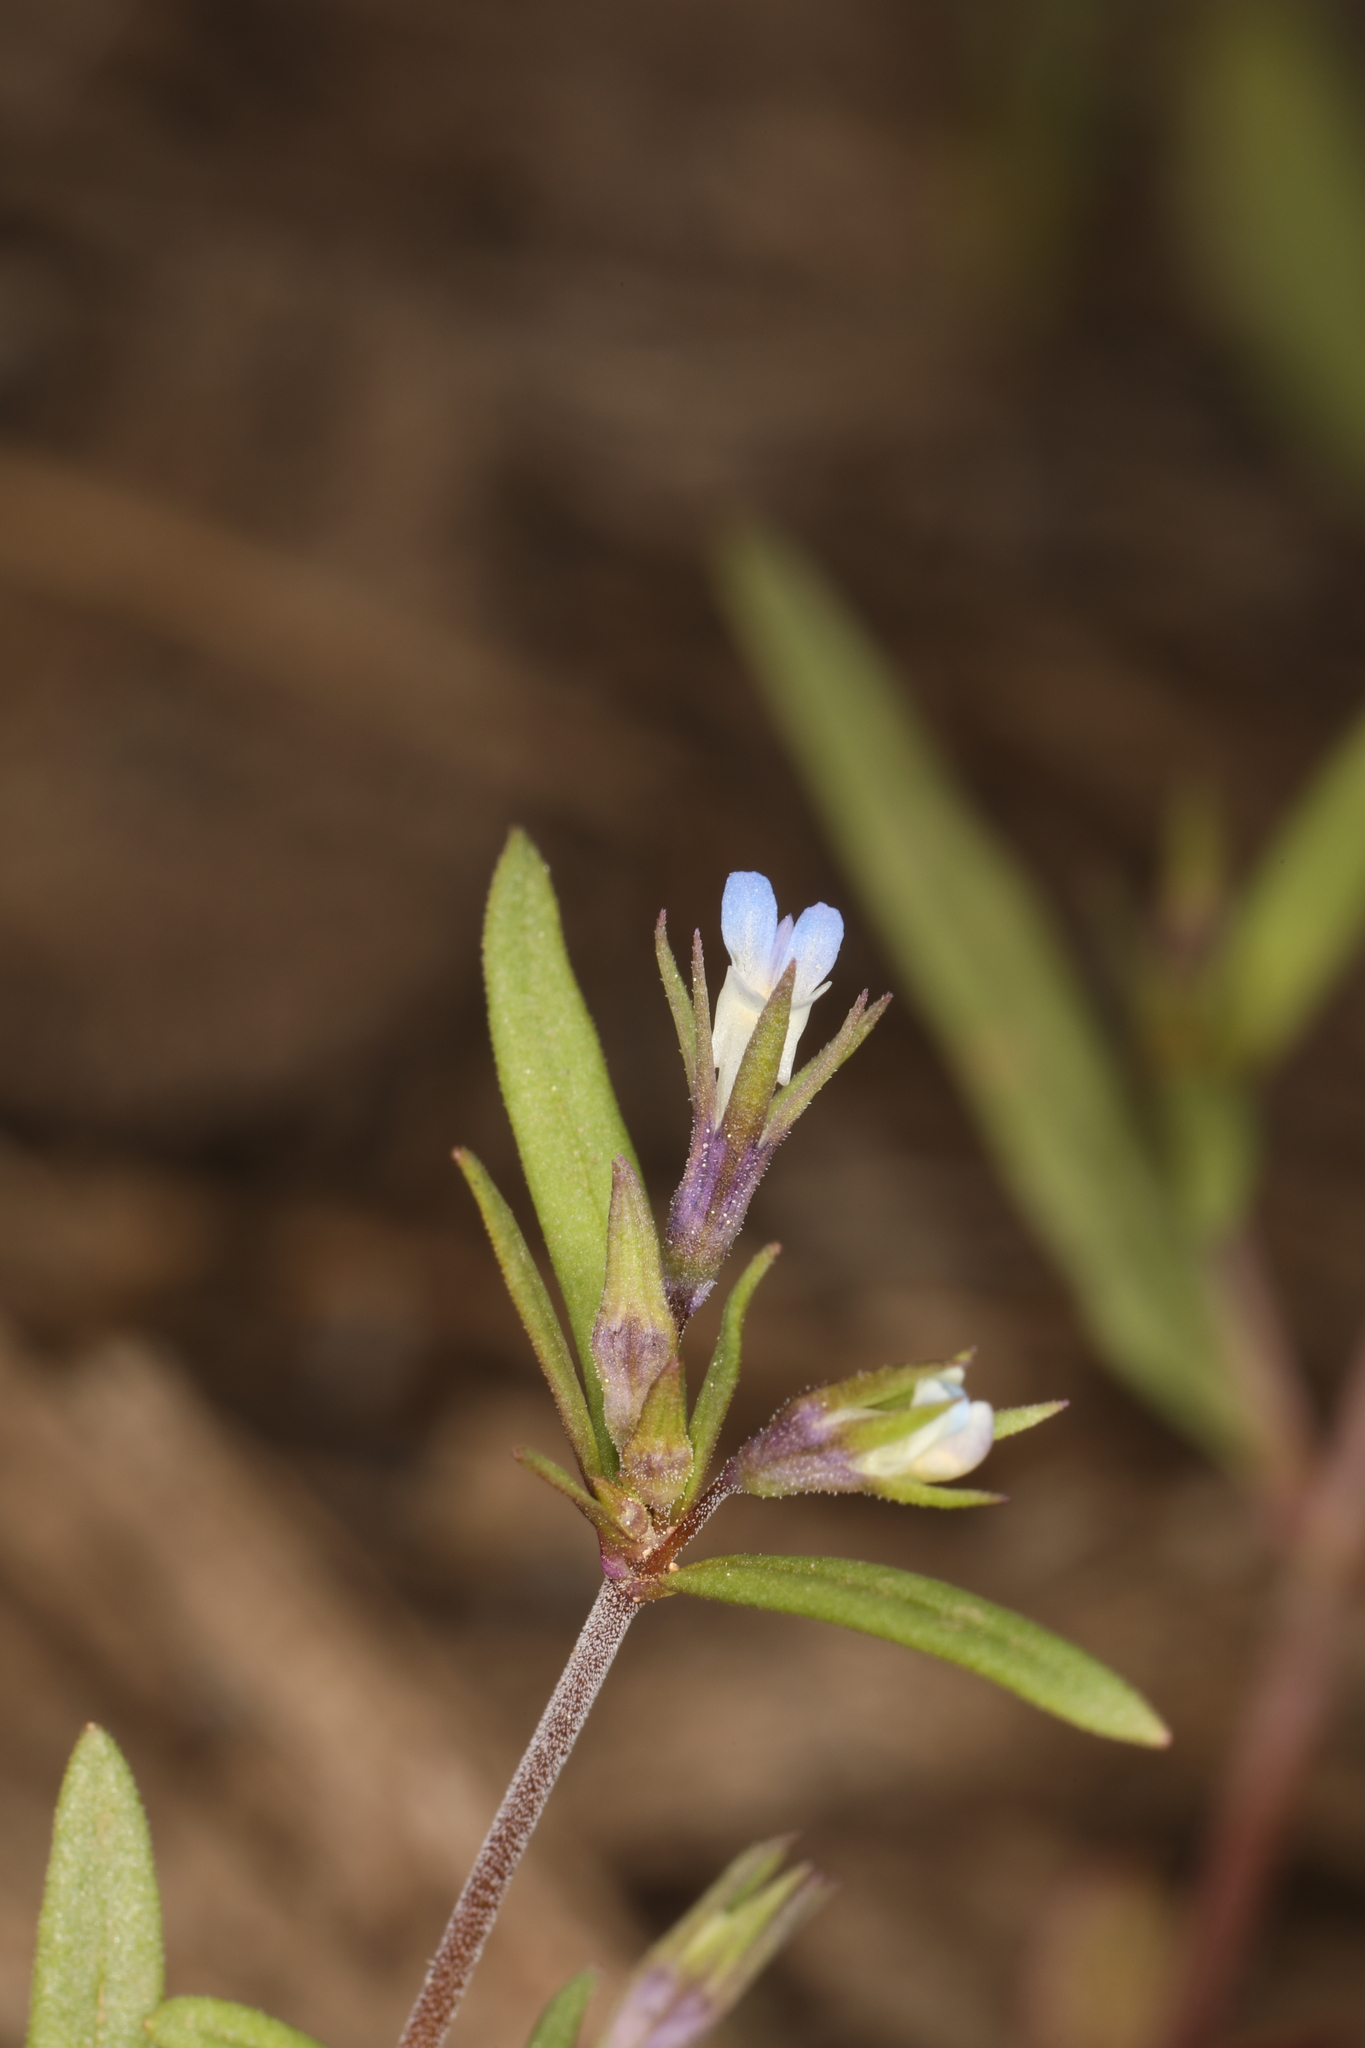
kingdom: Plantae
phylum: Tracheophyta
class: Magnoliopsida
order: Lamiales
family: Plantaginaceae
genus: Collinsia
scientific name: Collinsia parviflora
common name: Blue-lips
